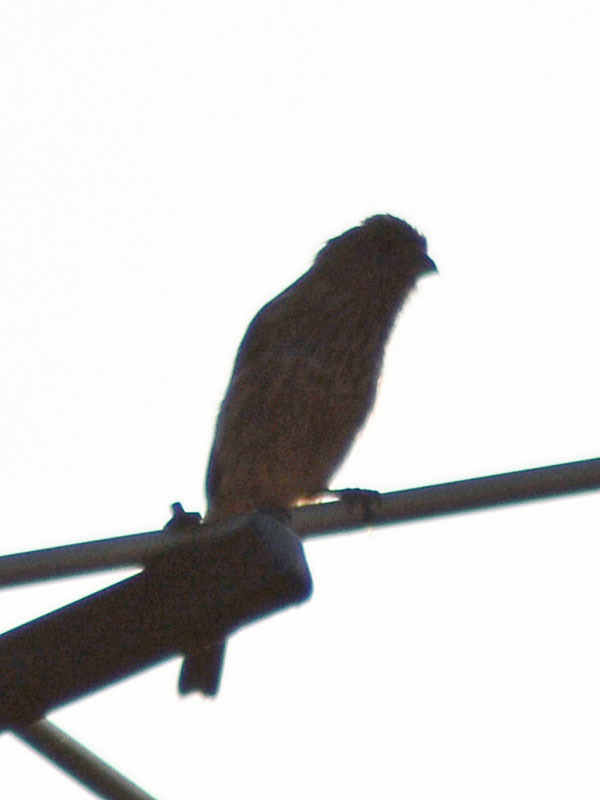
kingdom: Animalia
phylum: Chordata
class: Aves
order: Passeriformes
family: Fringillidae
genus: Haemorhous
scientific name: Haemorhous mexicanus
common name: House finch
